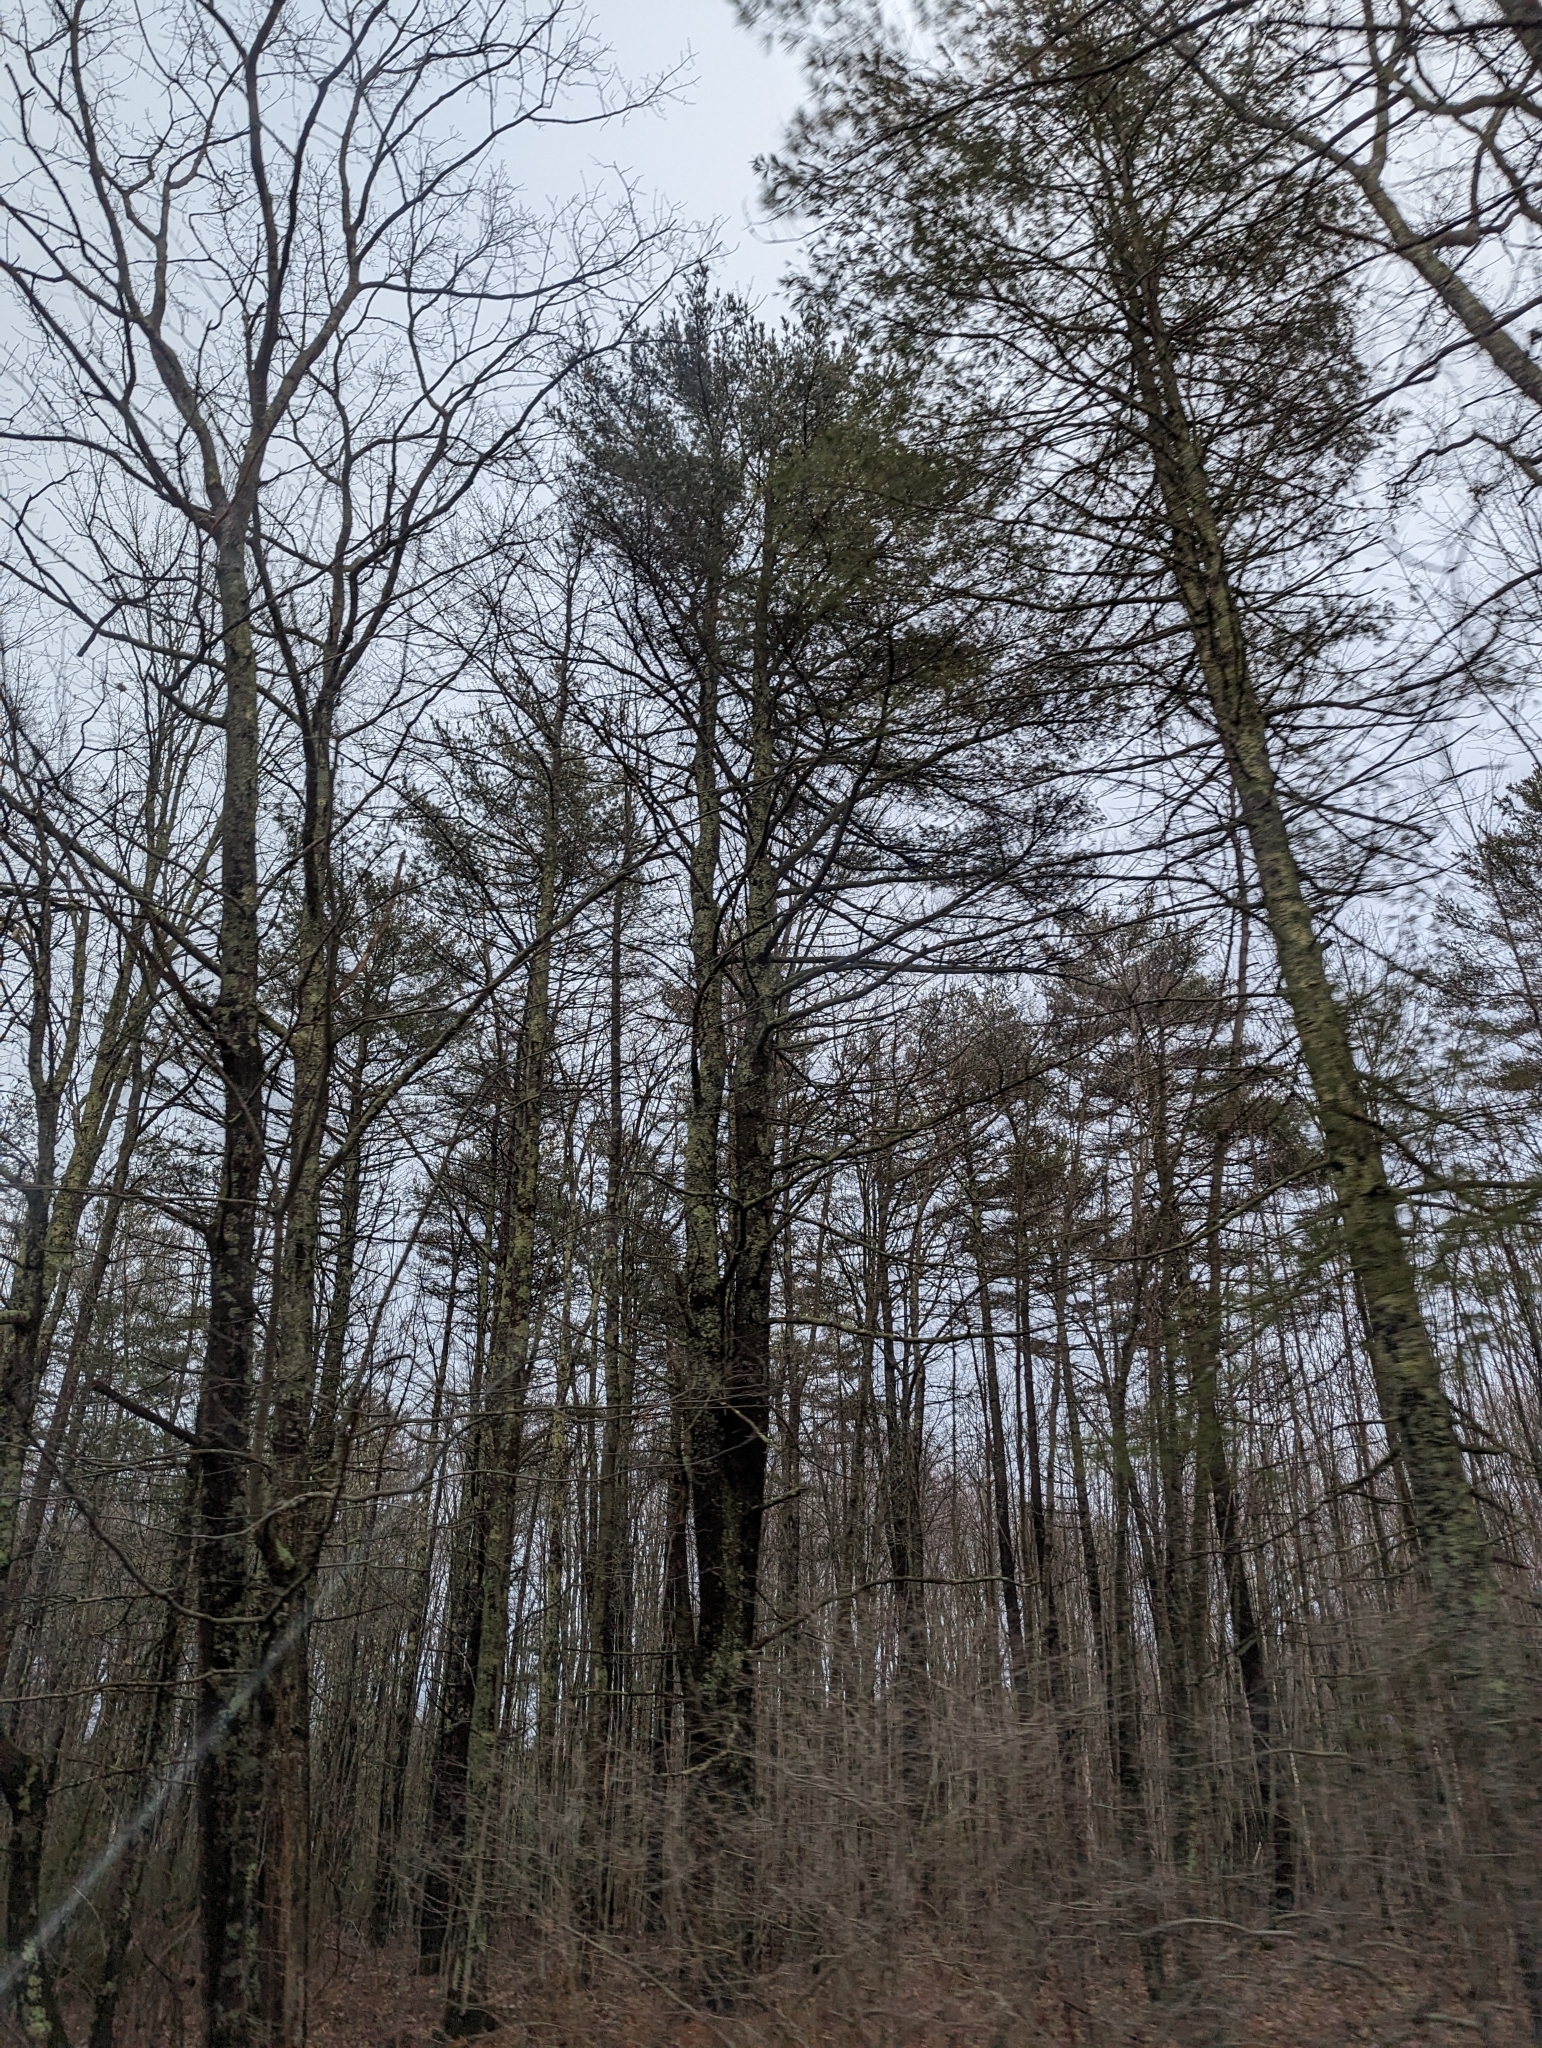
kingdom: Plantae
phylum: Tracheophyta
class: Pinopsida
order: Pinales
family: Pinaceae
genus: Pinus
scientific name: Pinus strobus
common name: Weymouth pine
